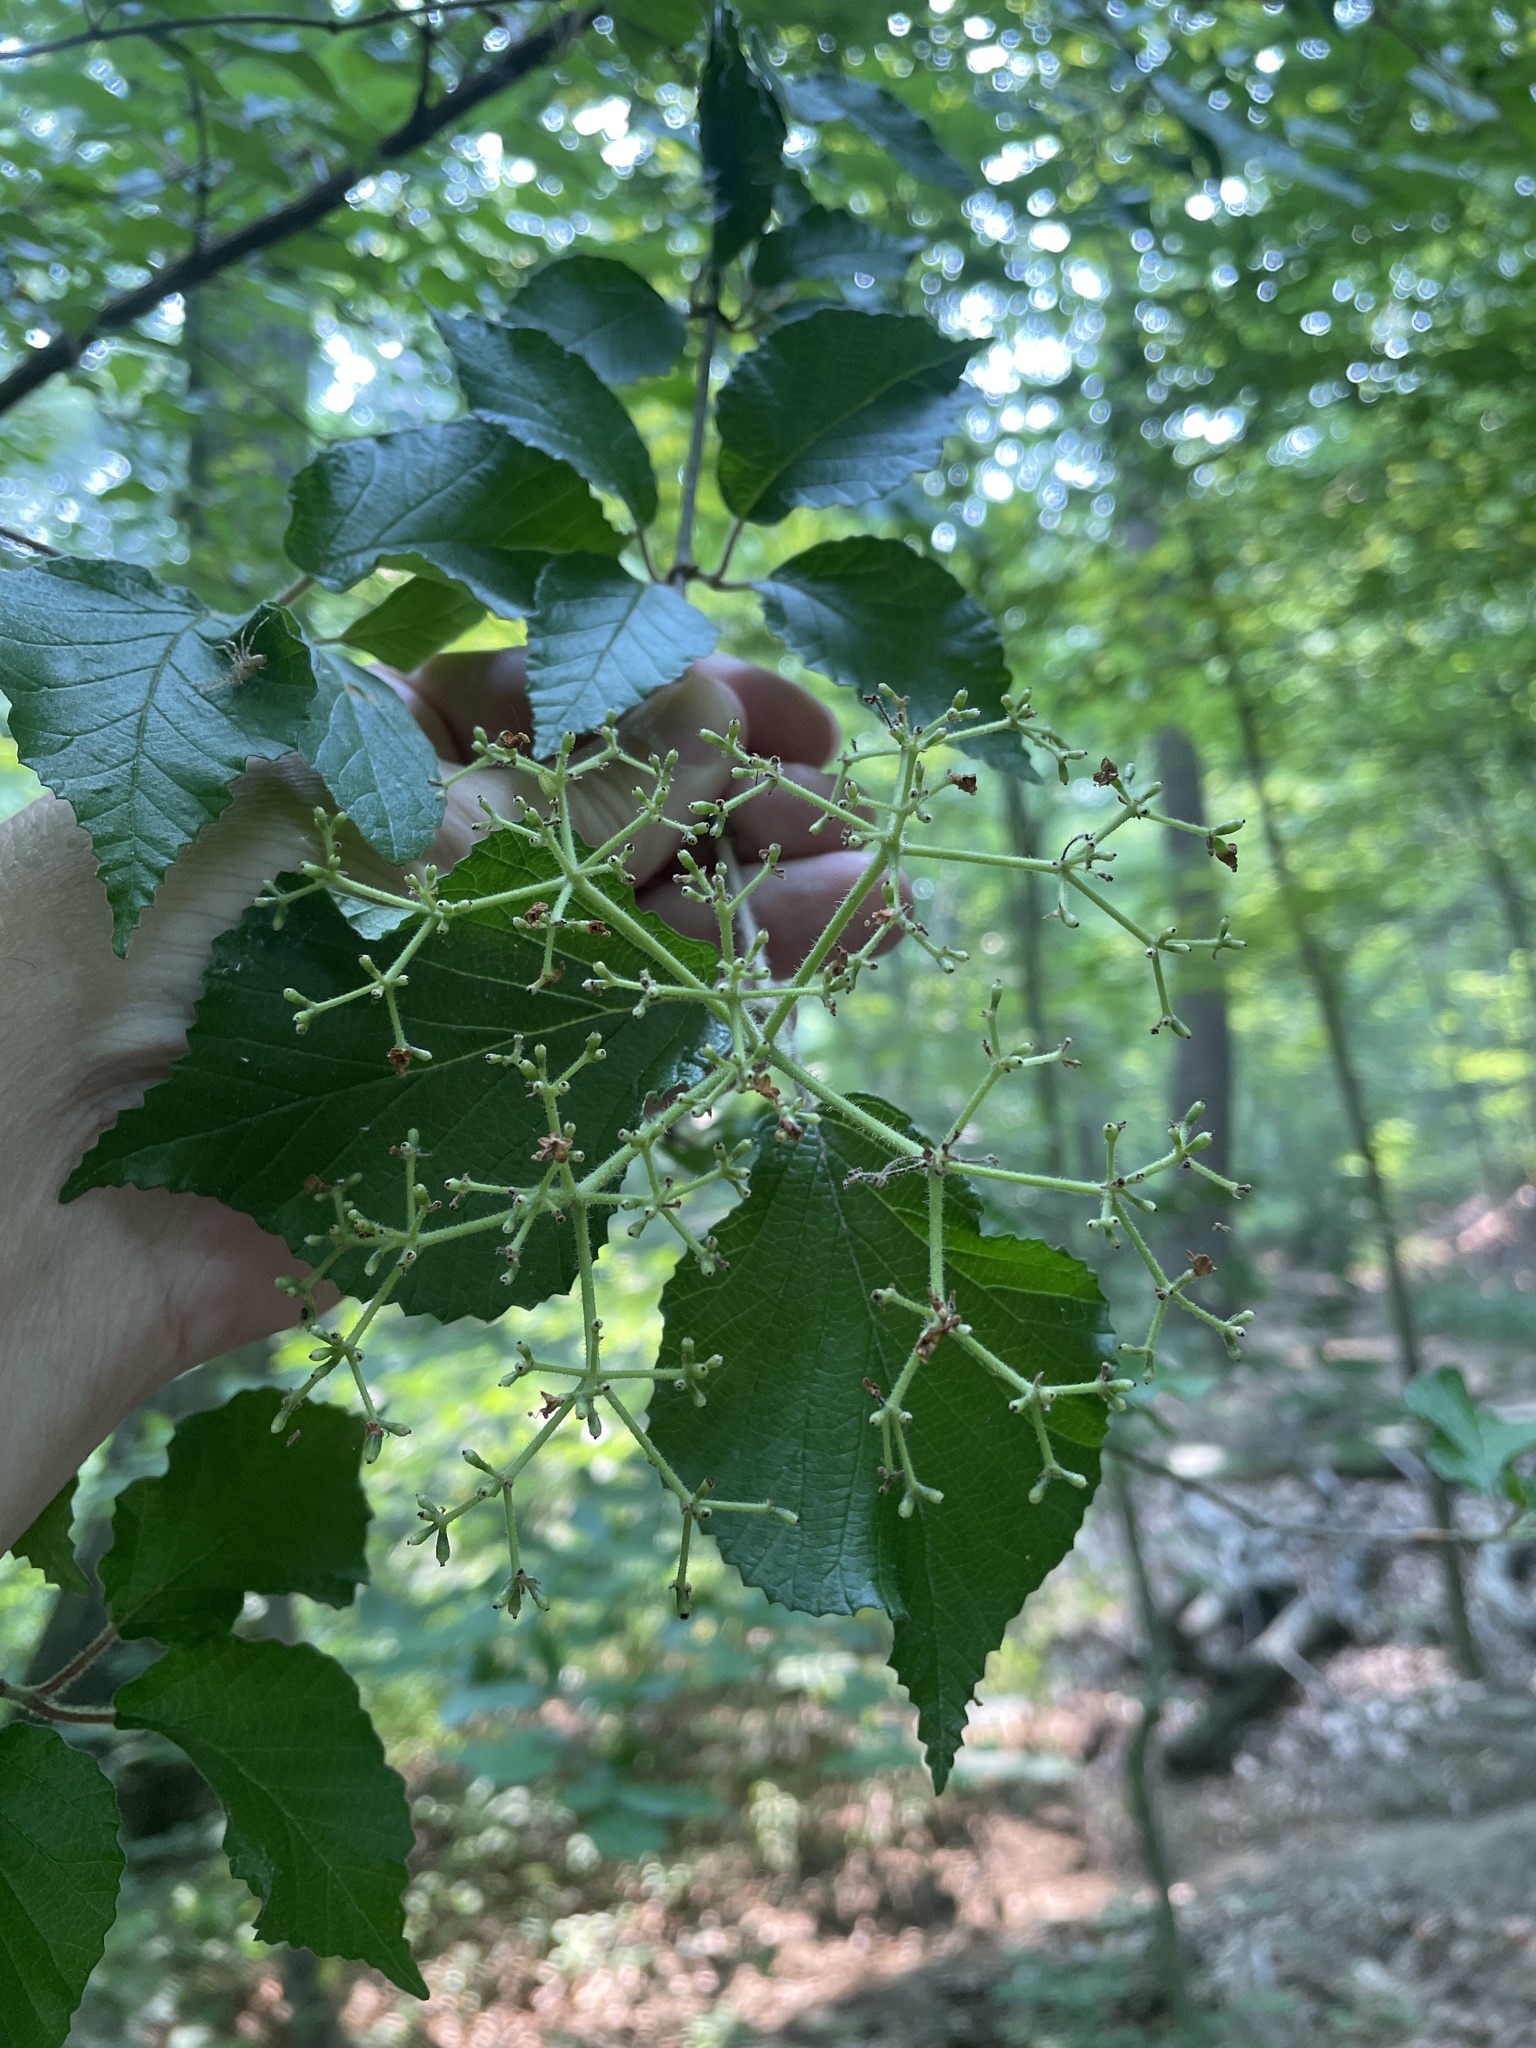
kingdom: Plantae
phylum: Tracheophyta
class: Magnoliopsida
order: Dipsacales
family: Viburnaceae
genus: Viburnum
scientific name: Viburnum dilatatum
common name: Linden arrowwood
